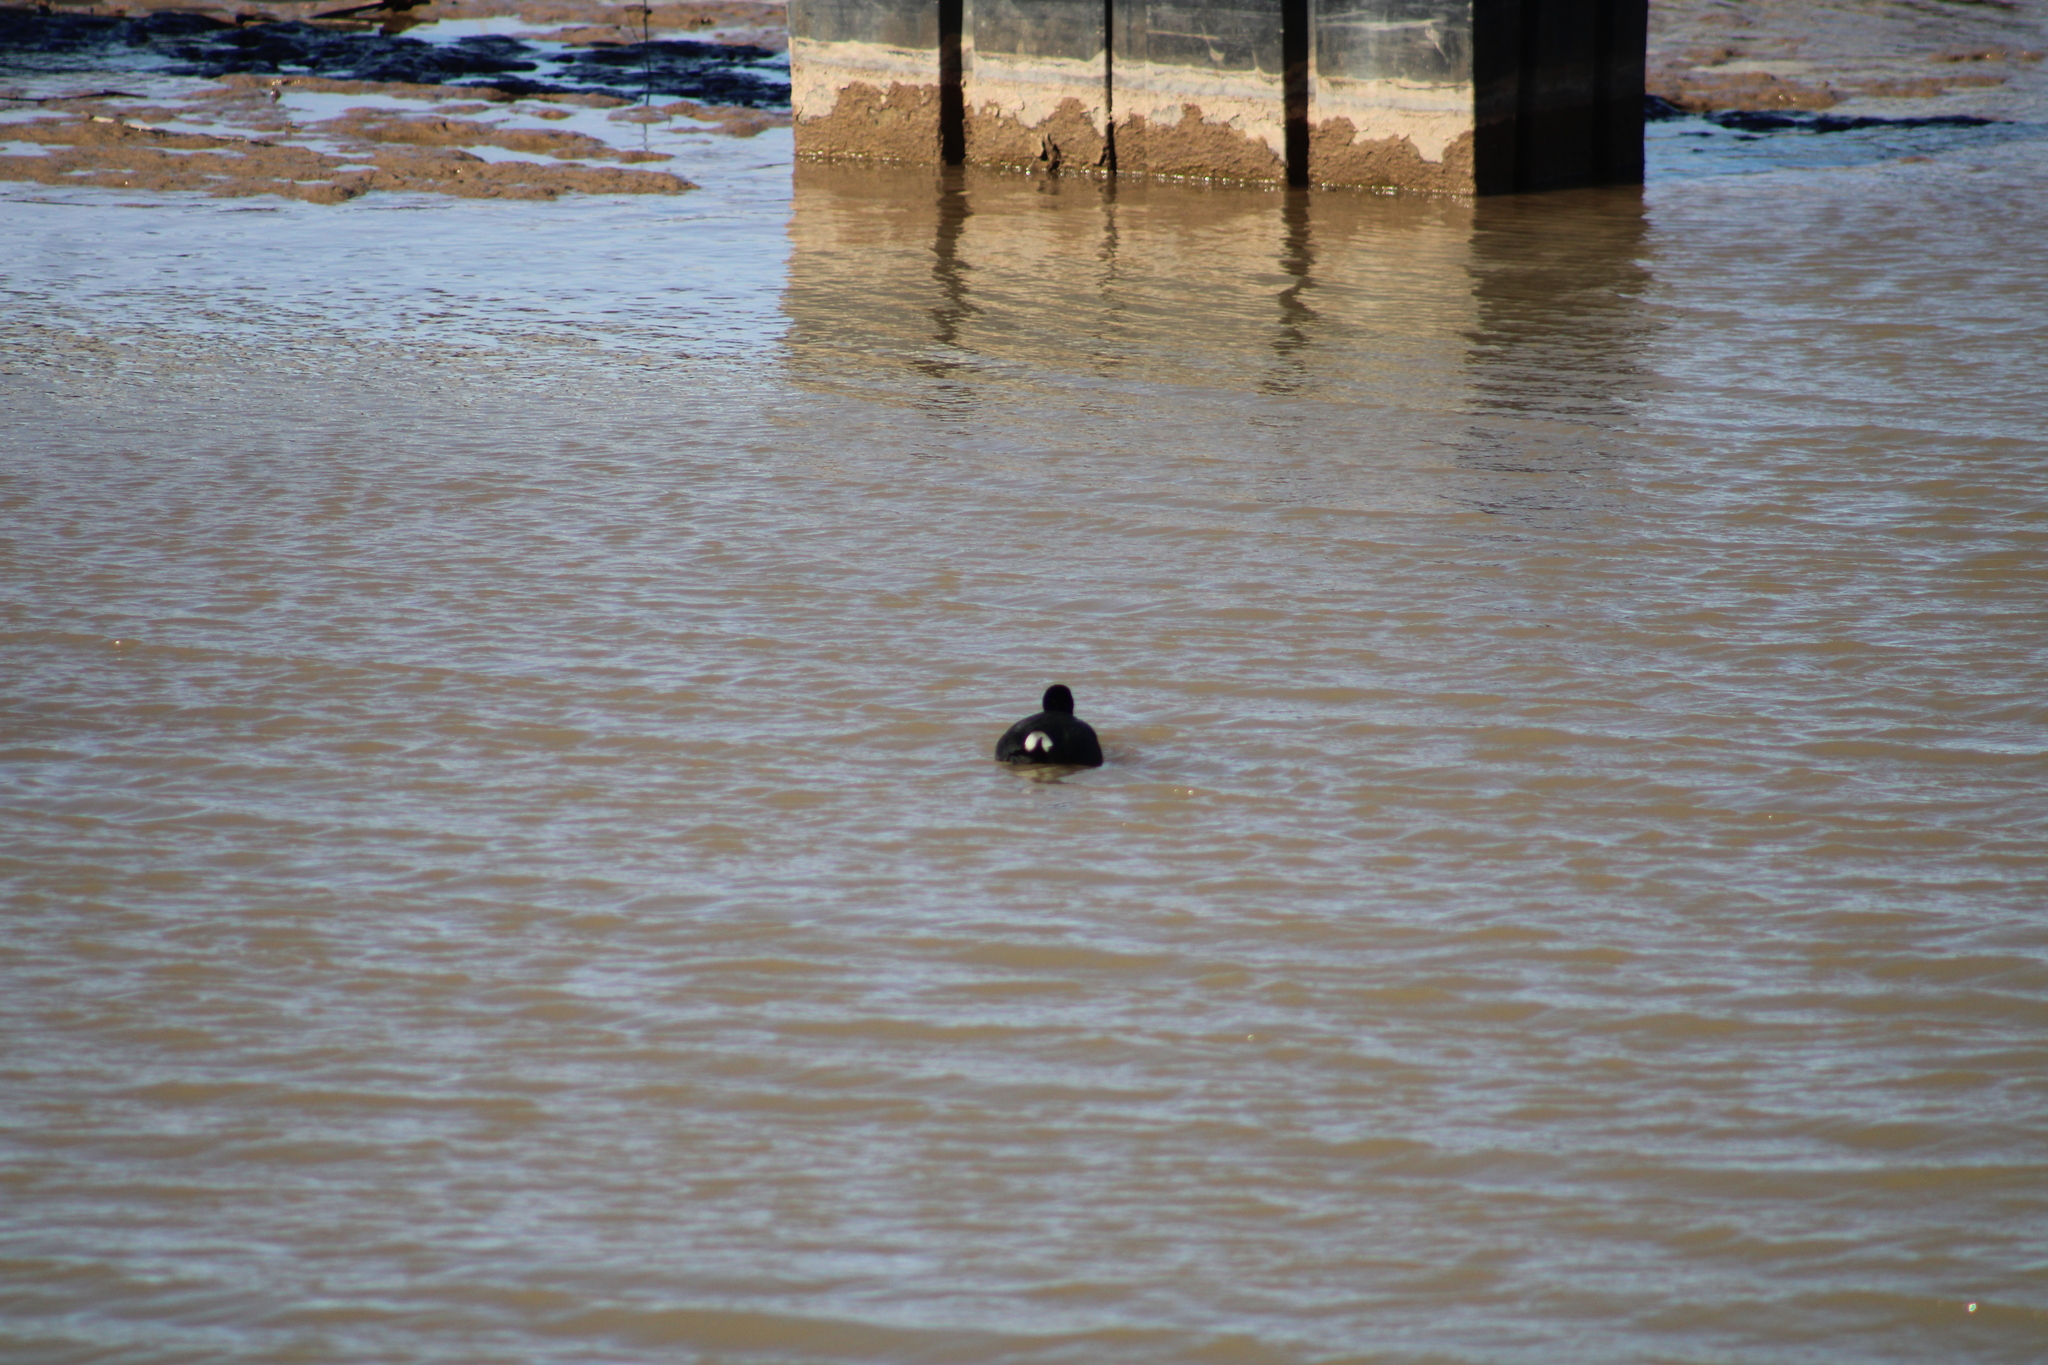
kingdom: Animalia
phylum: Chordata
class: Aves
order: Gruiformes
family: Rallidae
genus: Fulica
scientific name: Fulica americana
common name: American coot
